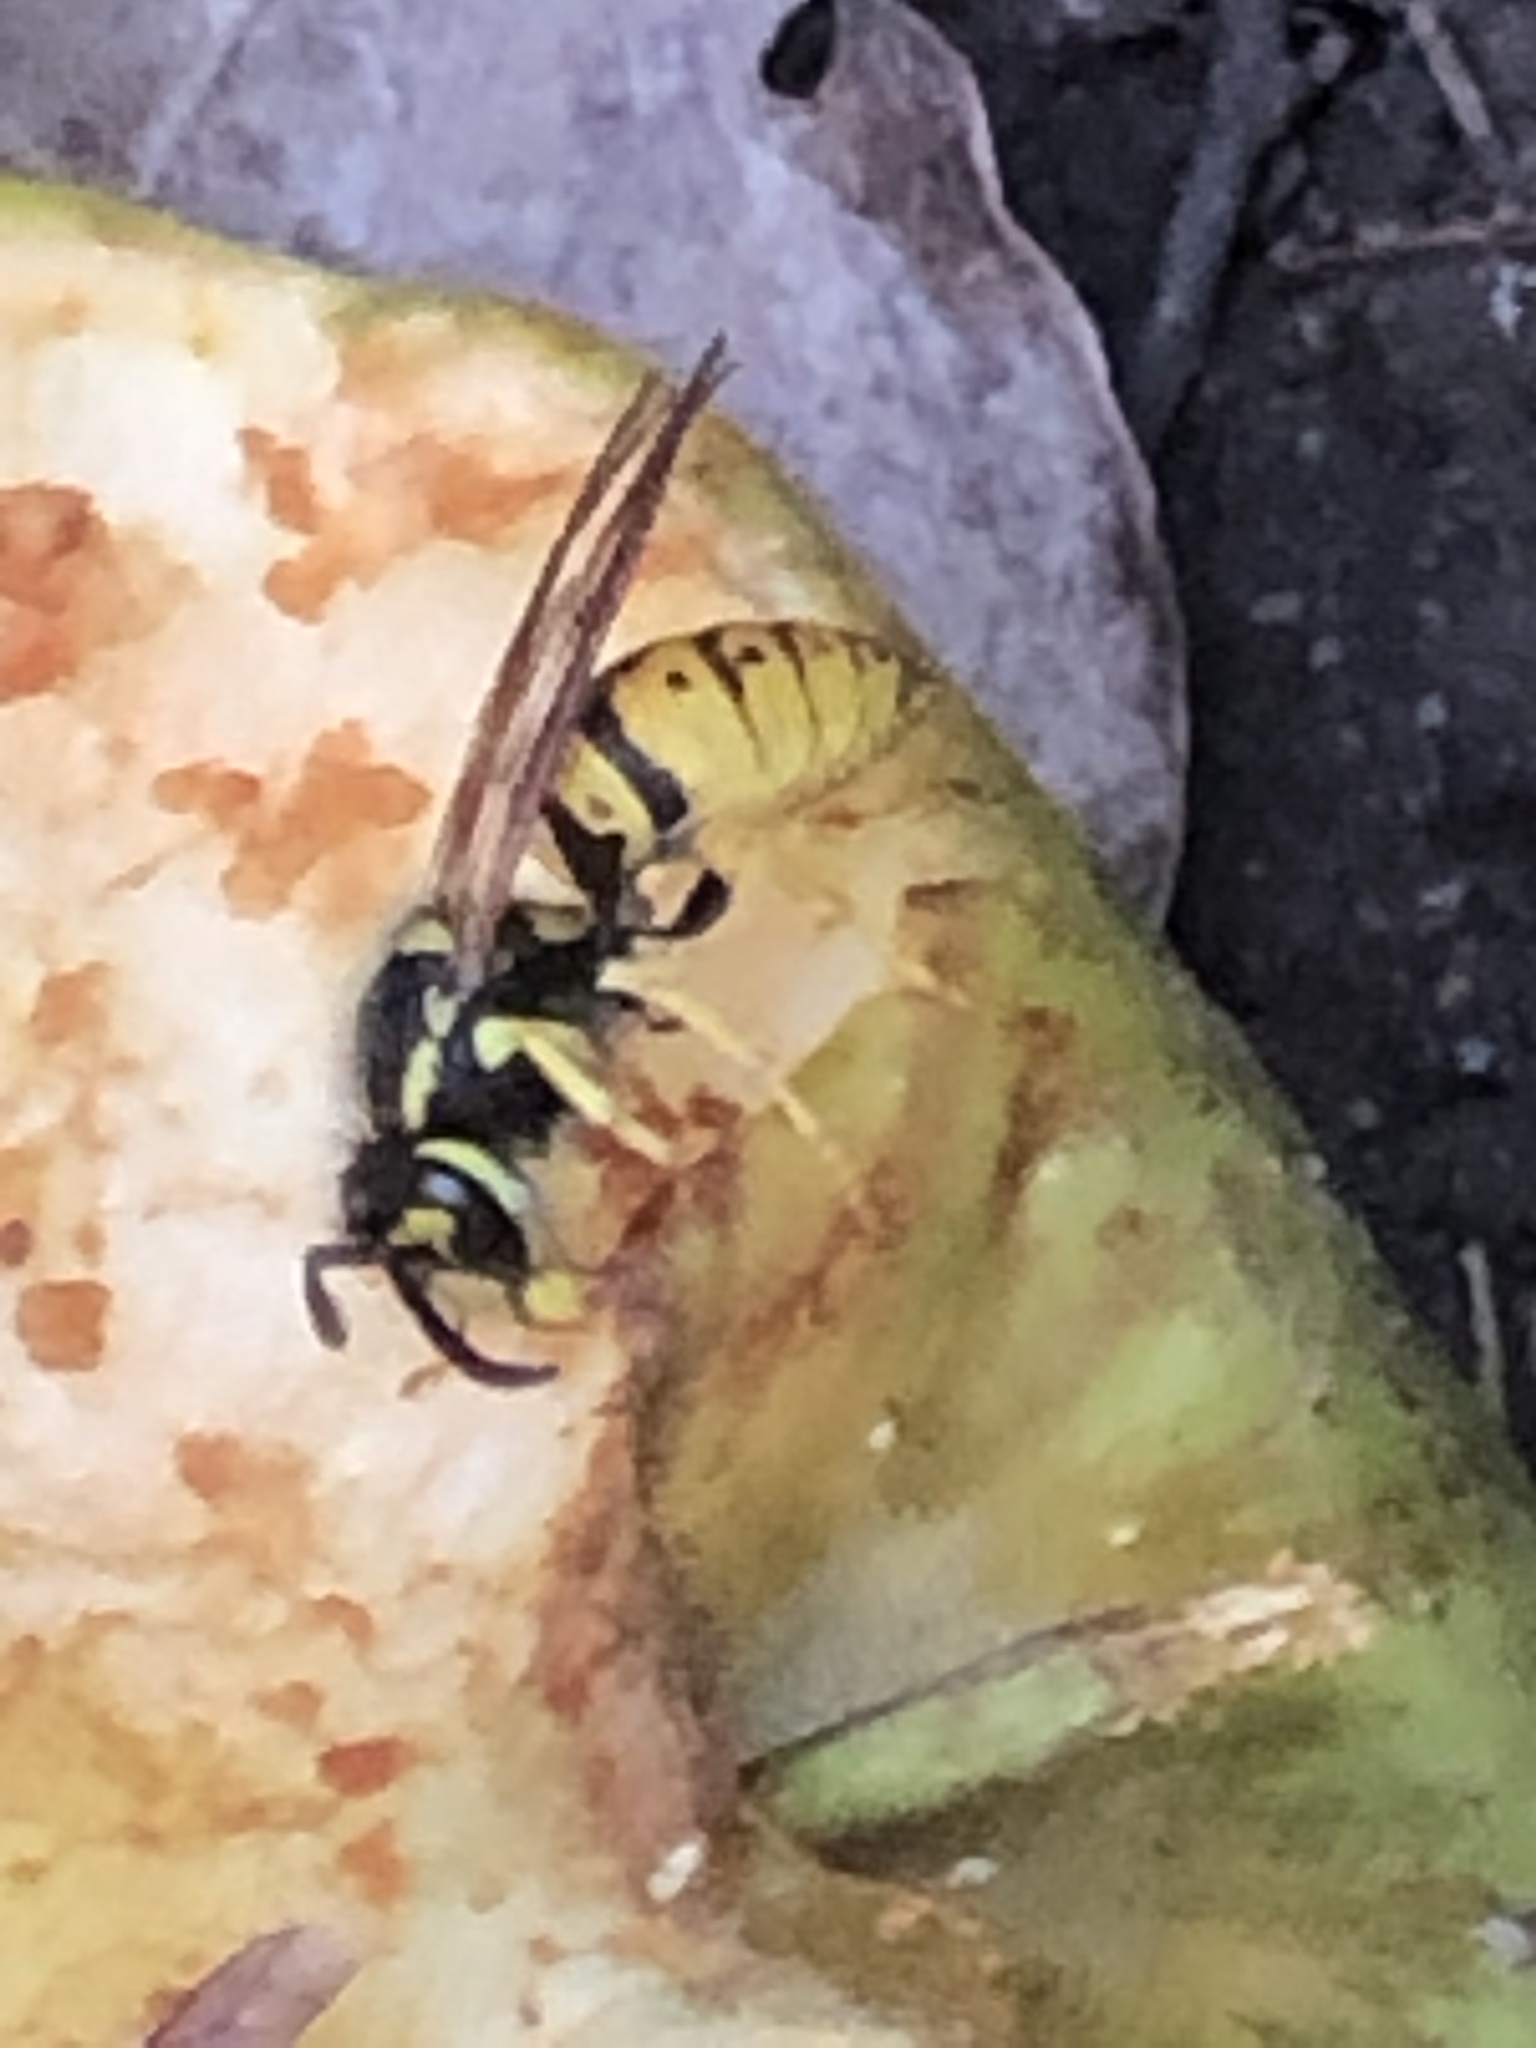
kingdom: Animalia
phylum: Arthropoda
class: Insecta
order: Hymenoptera
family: Vespidae
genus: Vespula
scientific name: Vespula germanica
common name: German wasp
